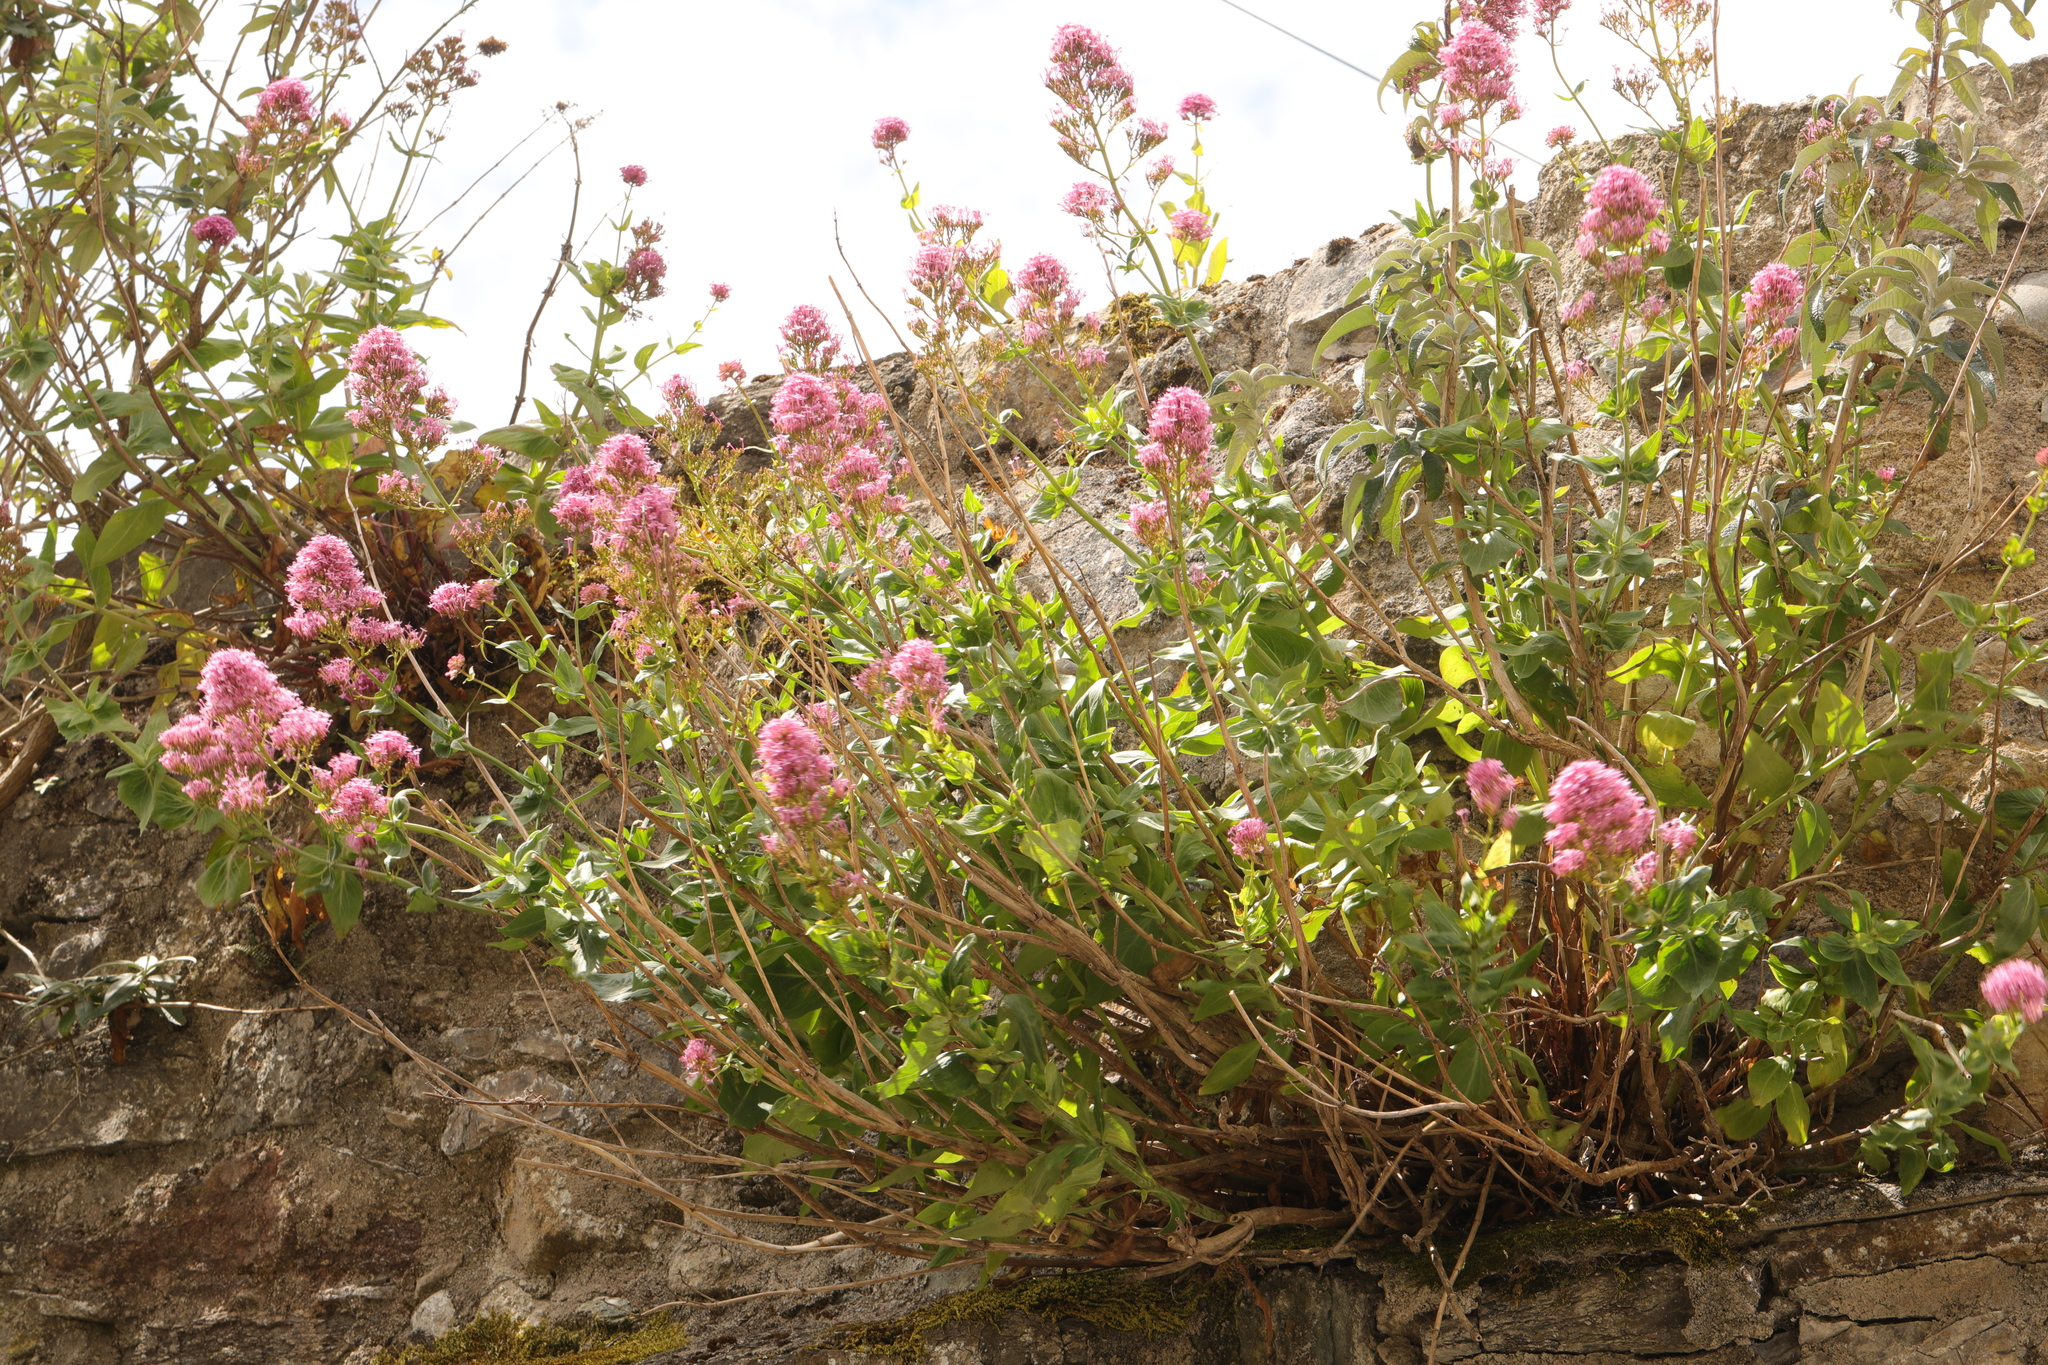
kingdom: Plantae
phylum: Tracheophyta
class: Magnoliopsida
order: Dipsacales
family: Caprifoliaceae
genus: Centranthus
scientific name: Centranthus ruber
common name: Red valerian
